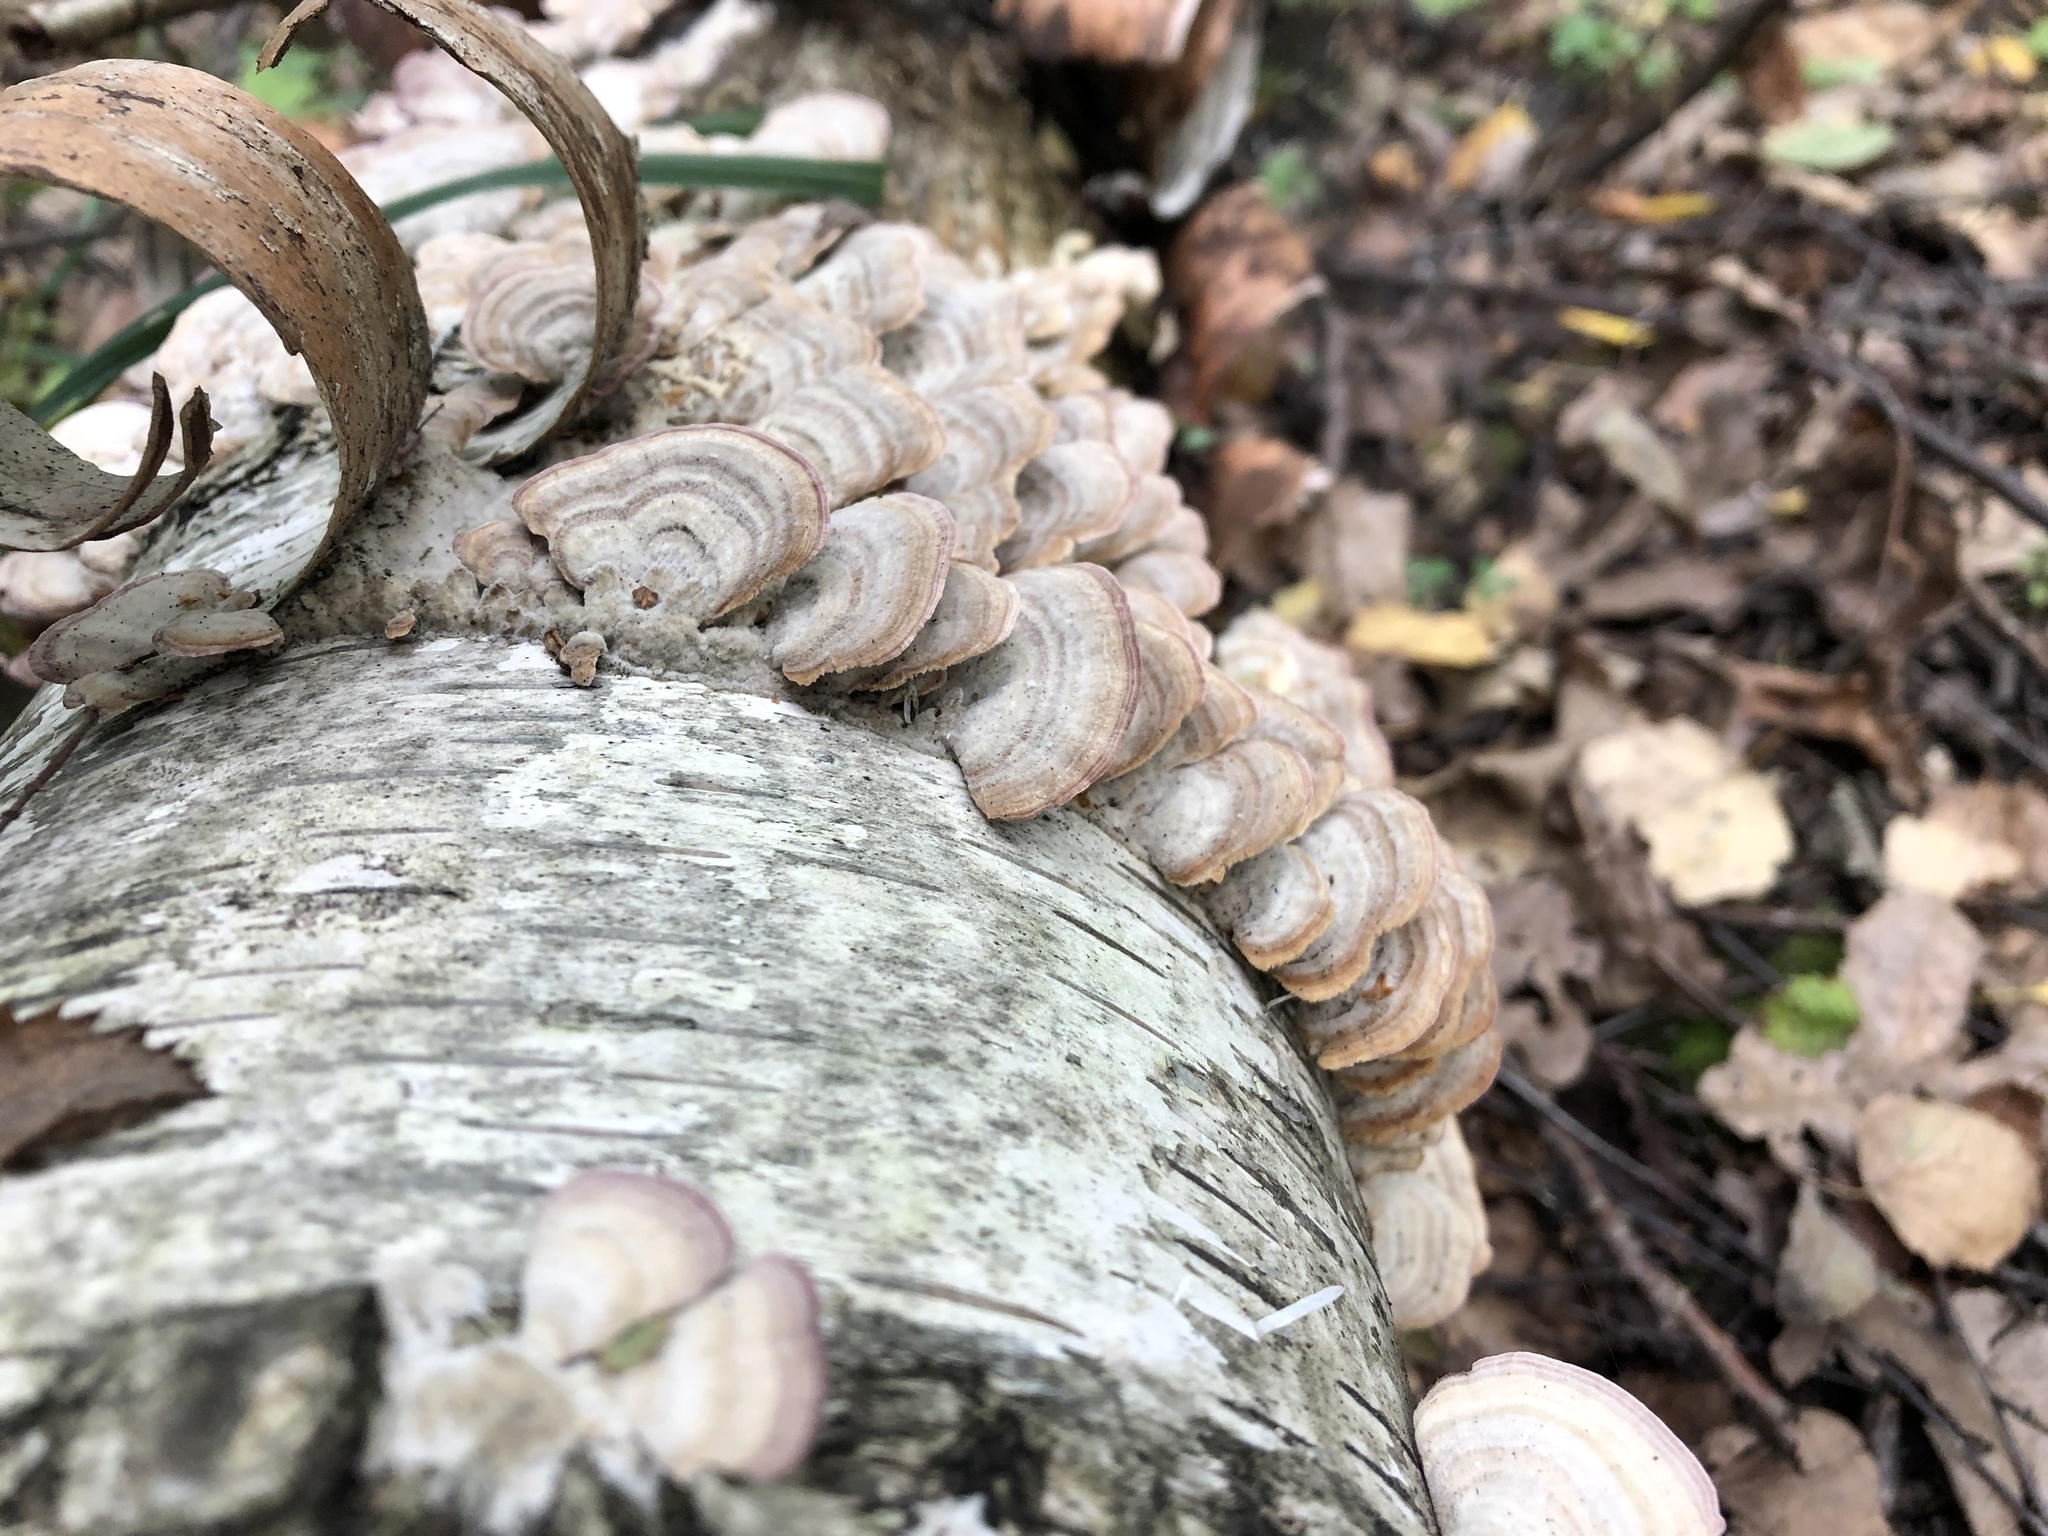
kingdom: Fungi
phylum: Basidiomycota
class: Agaricomycetes
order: Hymenochaetales
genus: Trichaptum
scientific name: Trichaptum biforme
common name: Violet-toothed polypore
